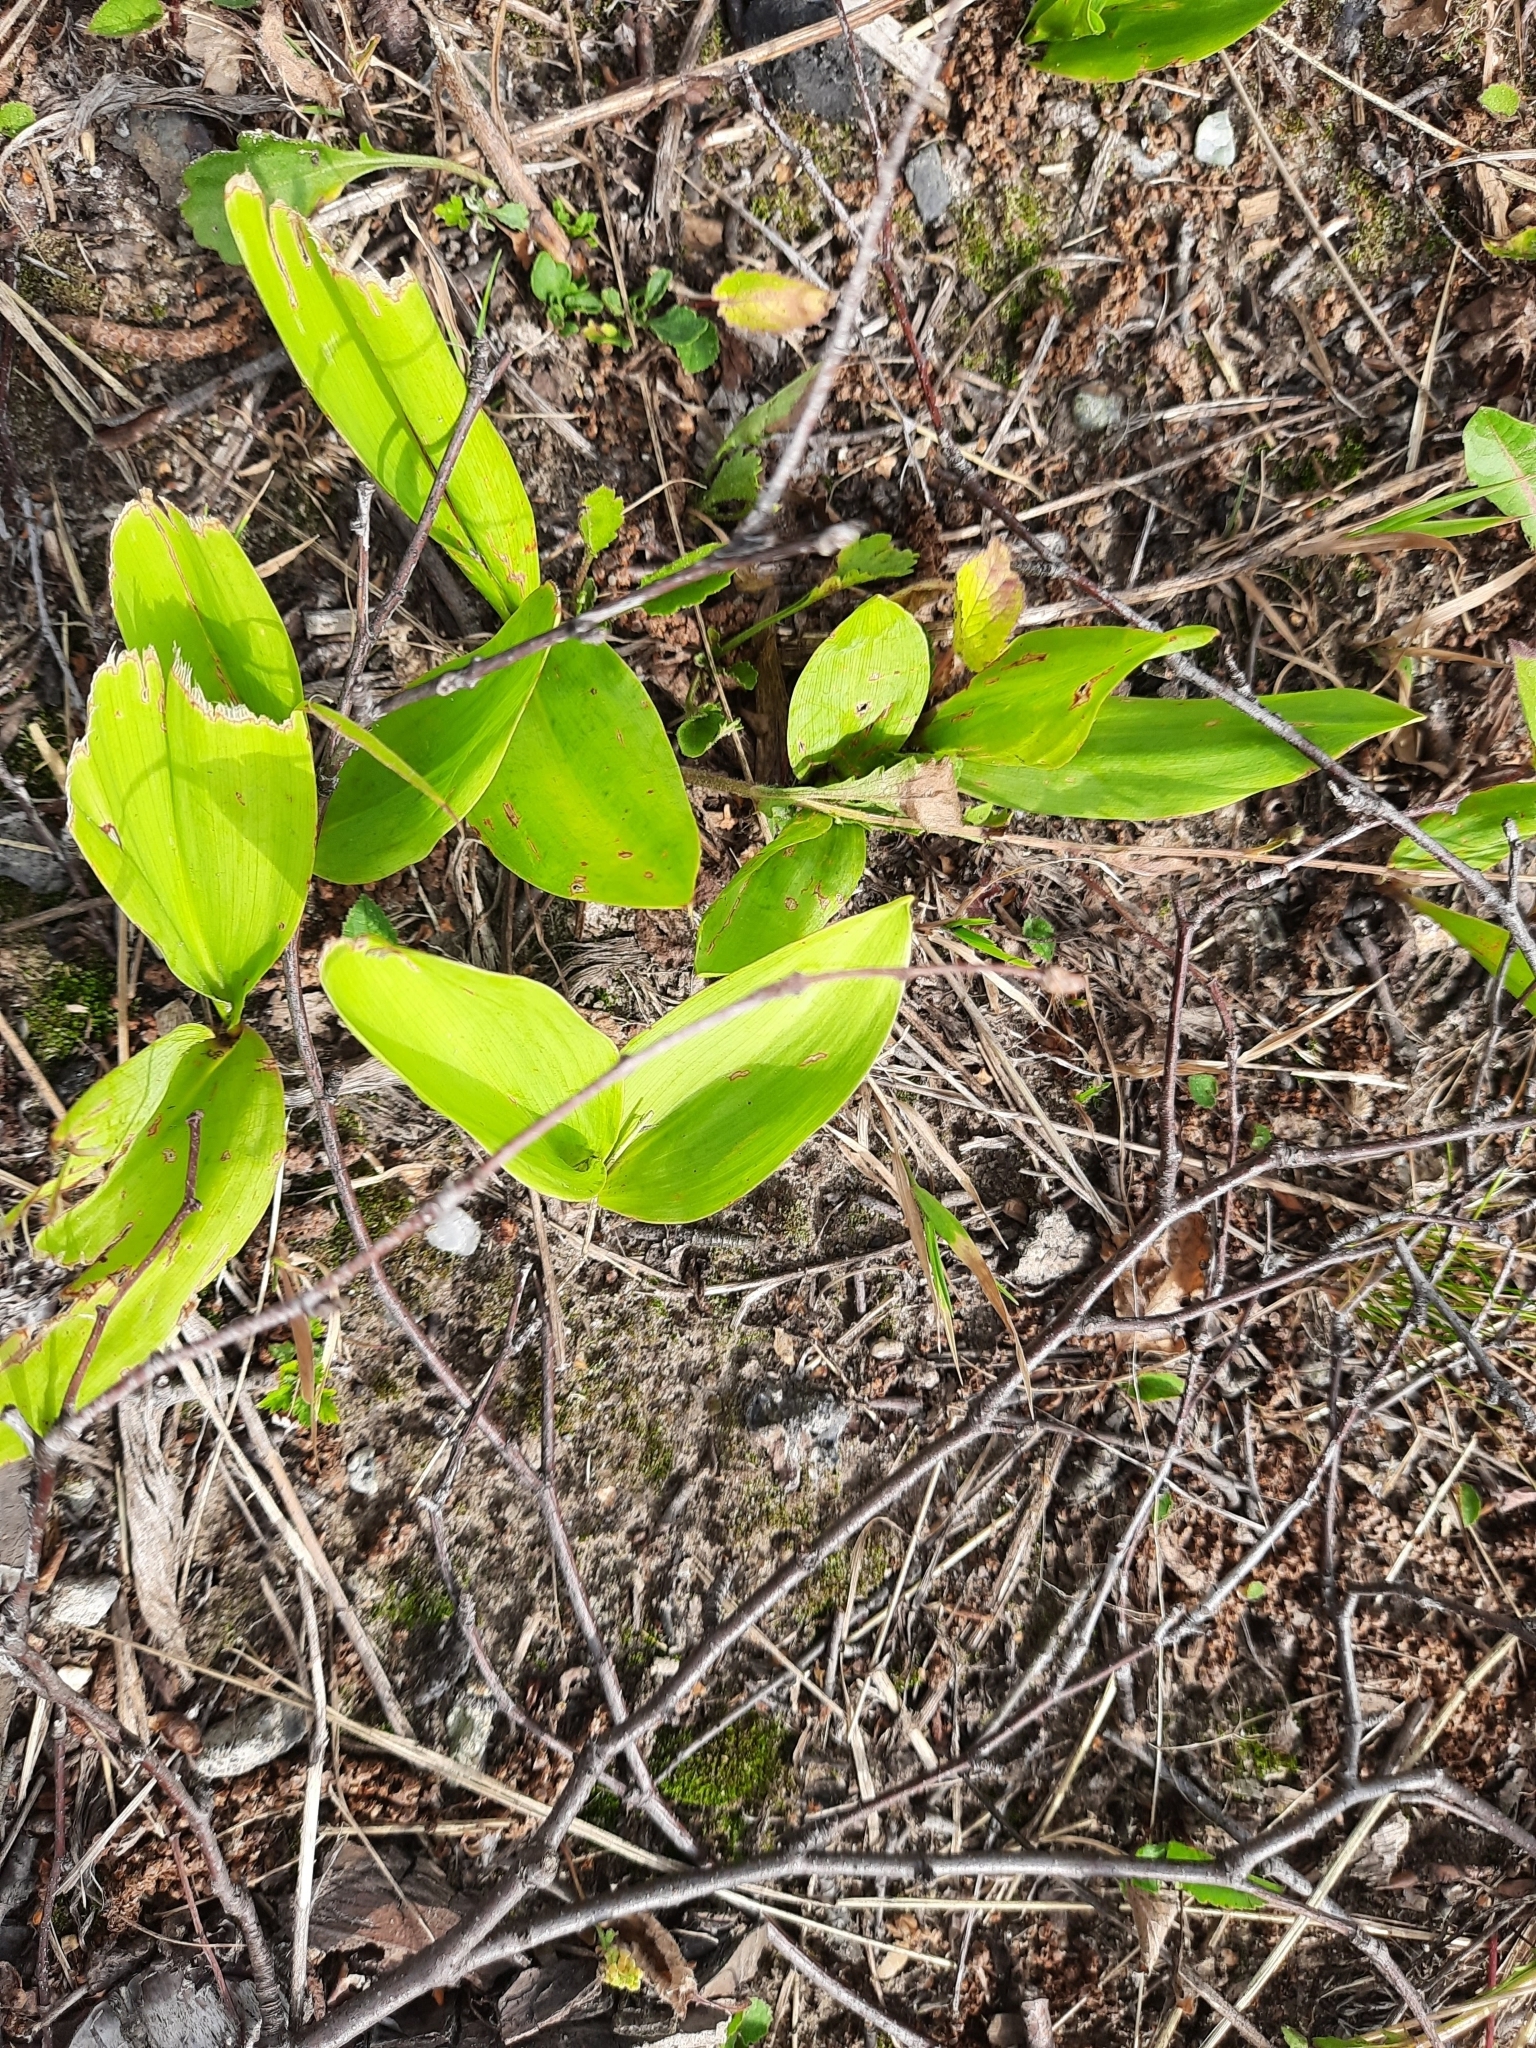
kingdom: Plantae
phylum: Tracheophyta
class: Liliopsida
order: Asparagales
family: Asparagaceae
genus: Convallaria
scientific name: Convallaria majalis
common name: Lily-of-the-valley
